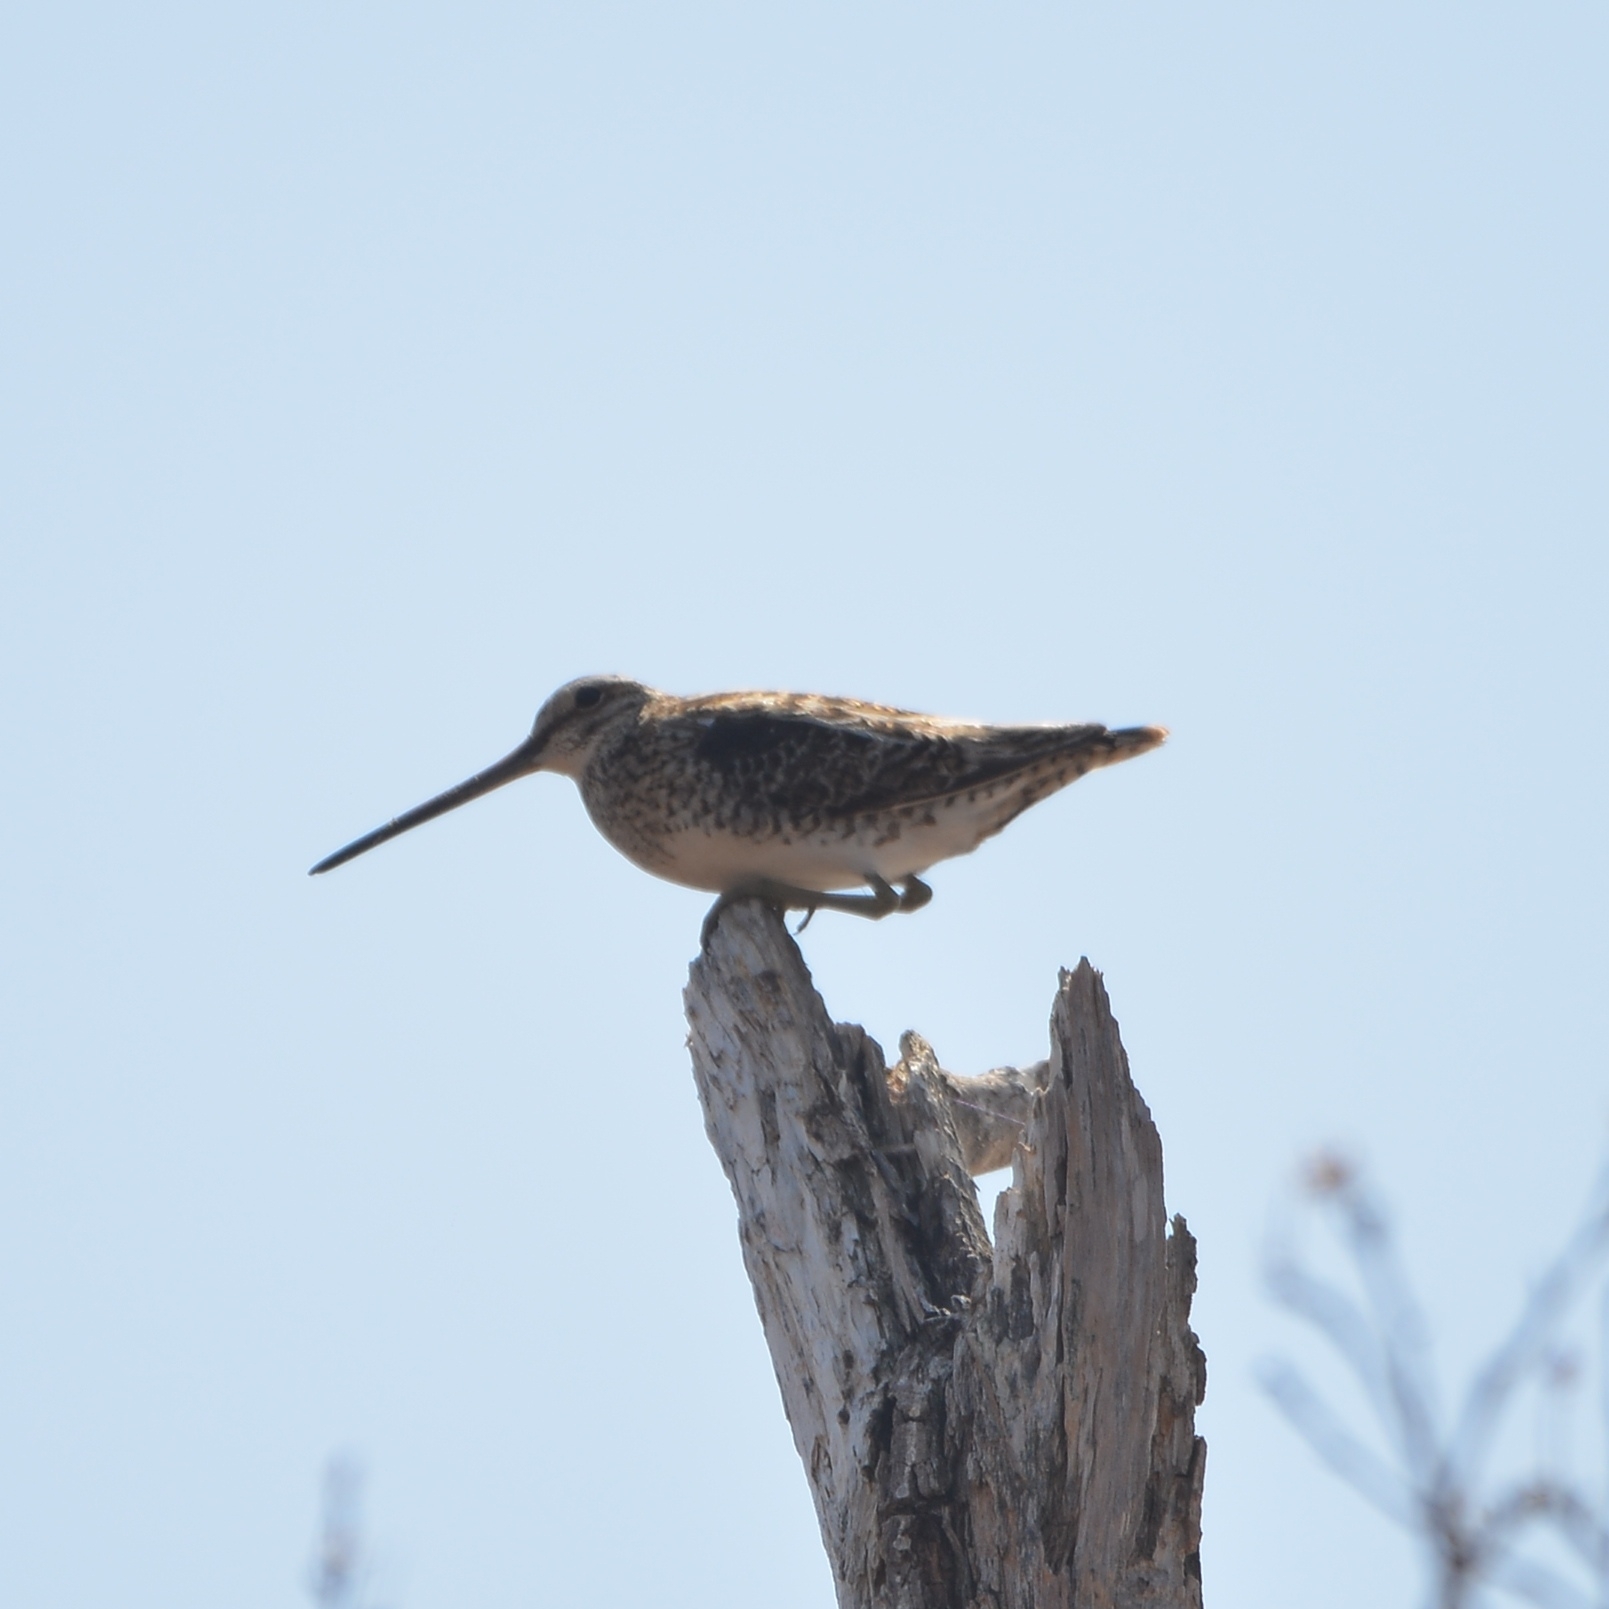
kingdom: Animalia
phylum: Chordata
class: Aves
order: Charadriiformes
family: Scolopacidae
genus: Gallinago
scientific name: Gallinago gallinago
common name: Common snipe
